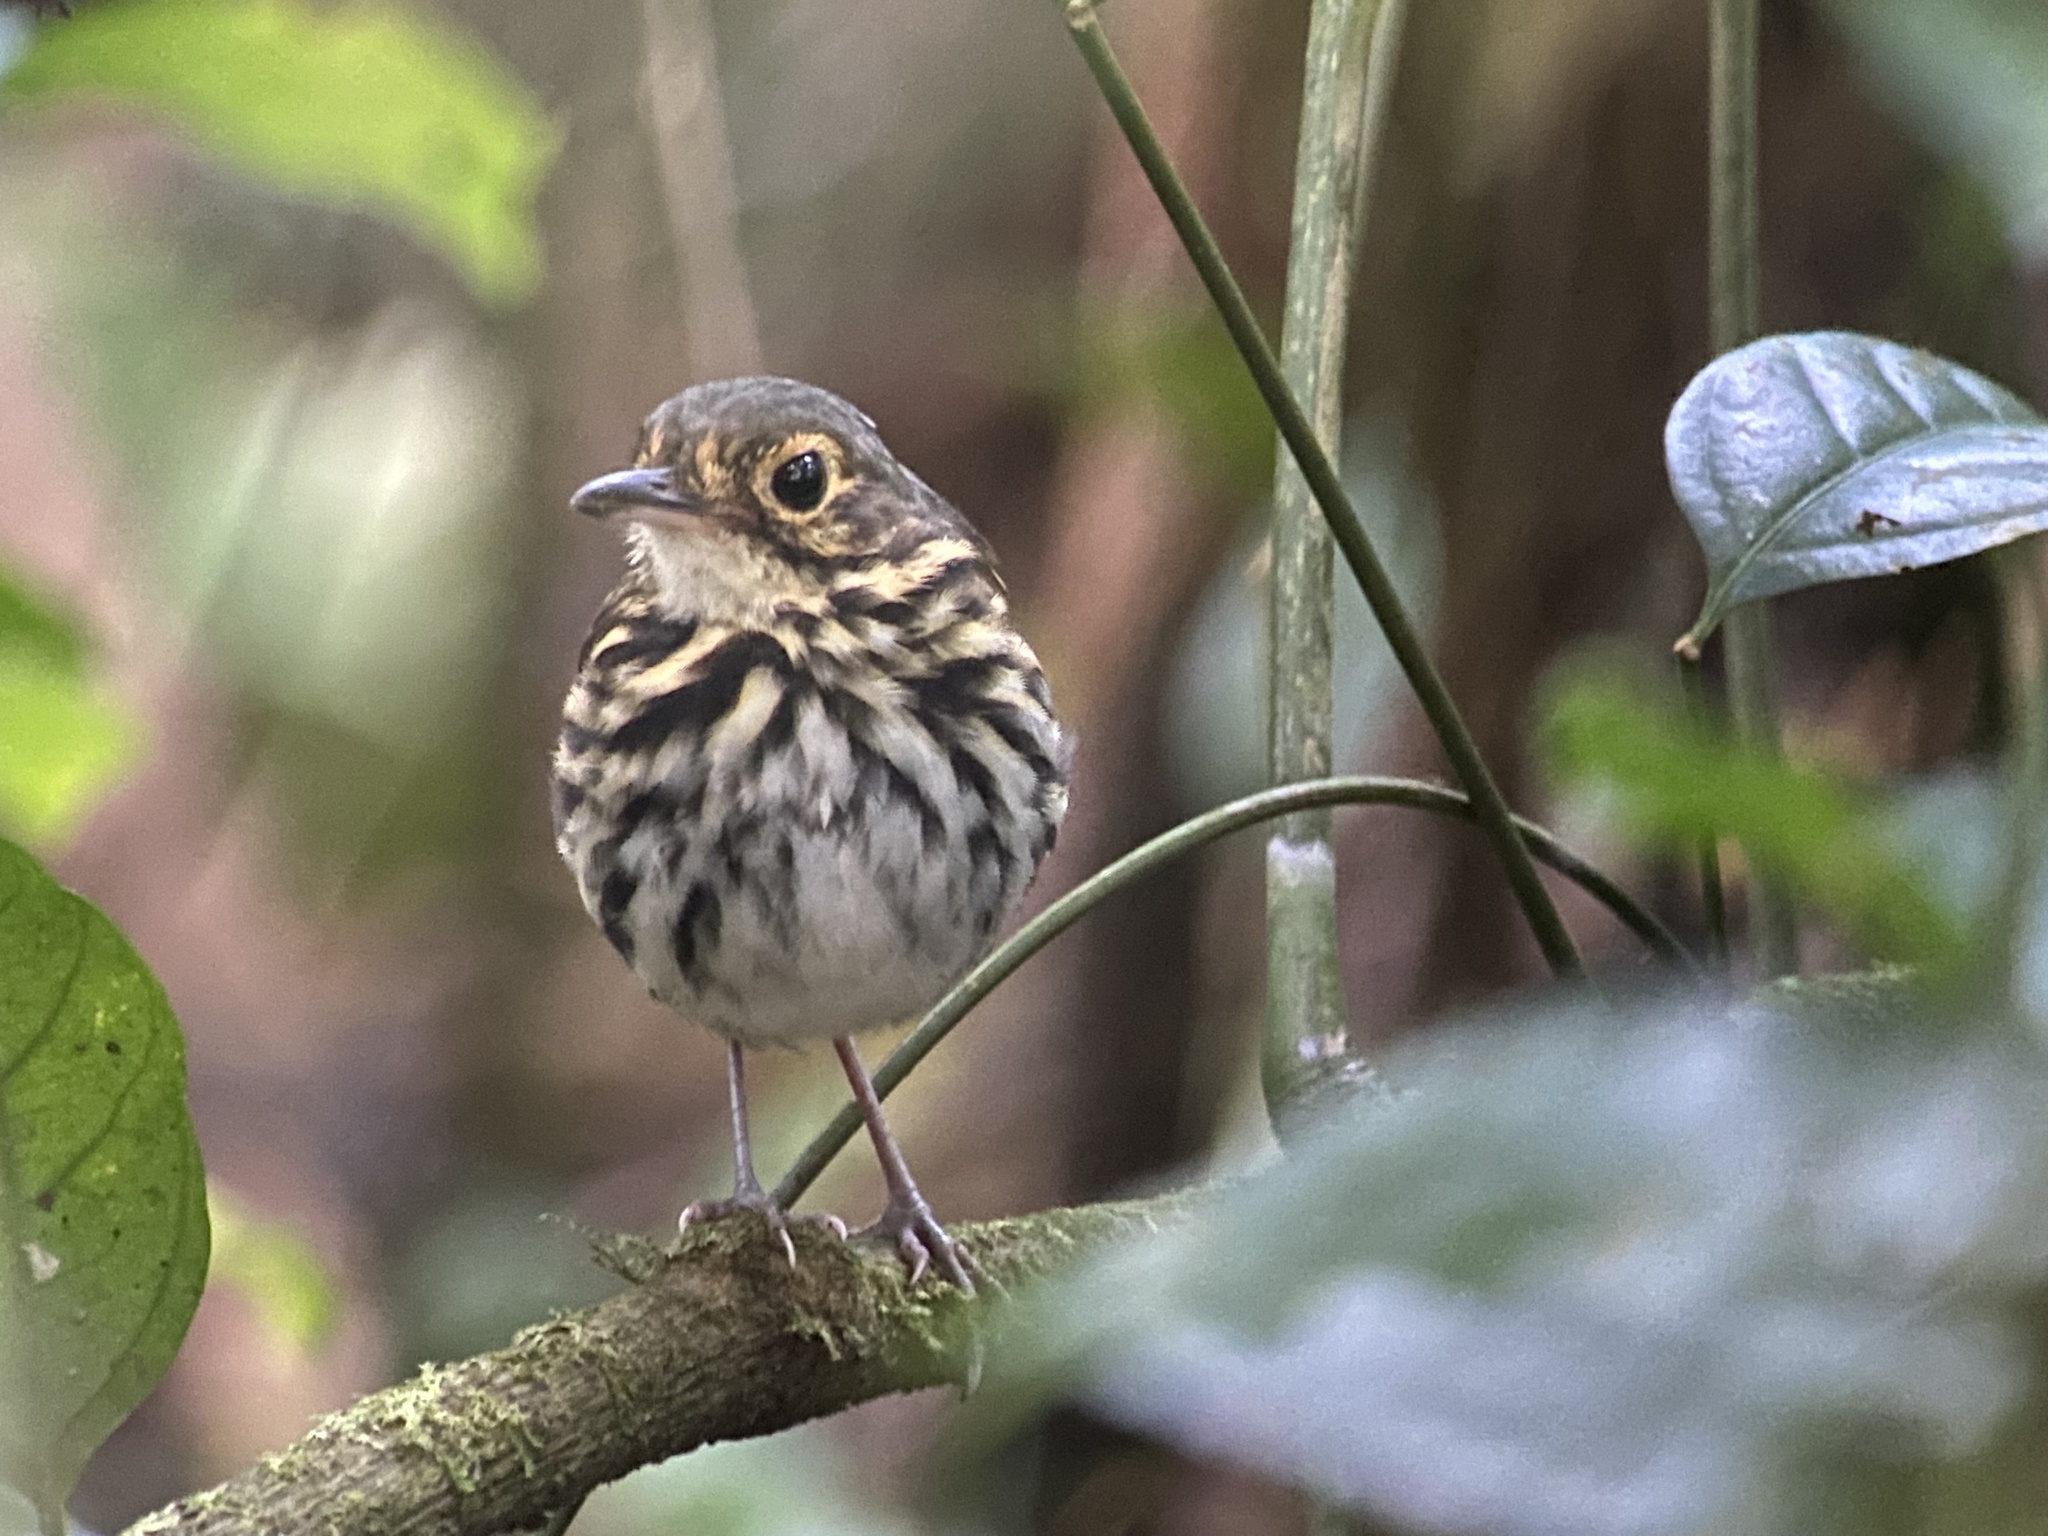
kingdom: Animalia
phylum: Chordata
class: Aves
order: Passeriformes
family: Grallariidae
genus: Hylopezus
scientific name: Hylopezus perspicillatus
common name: Streak-chested antpitta
